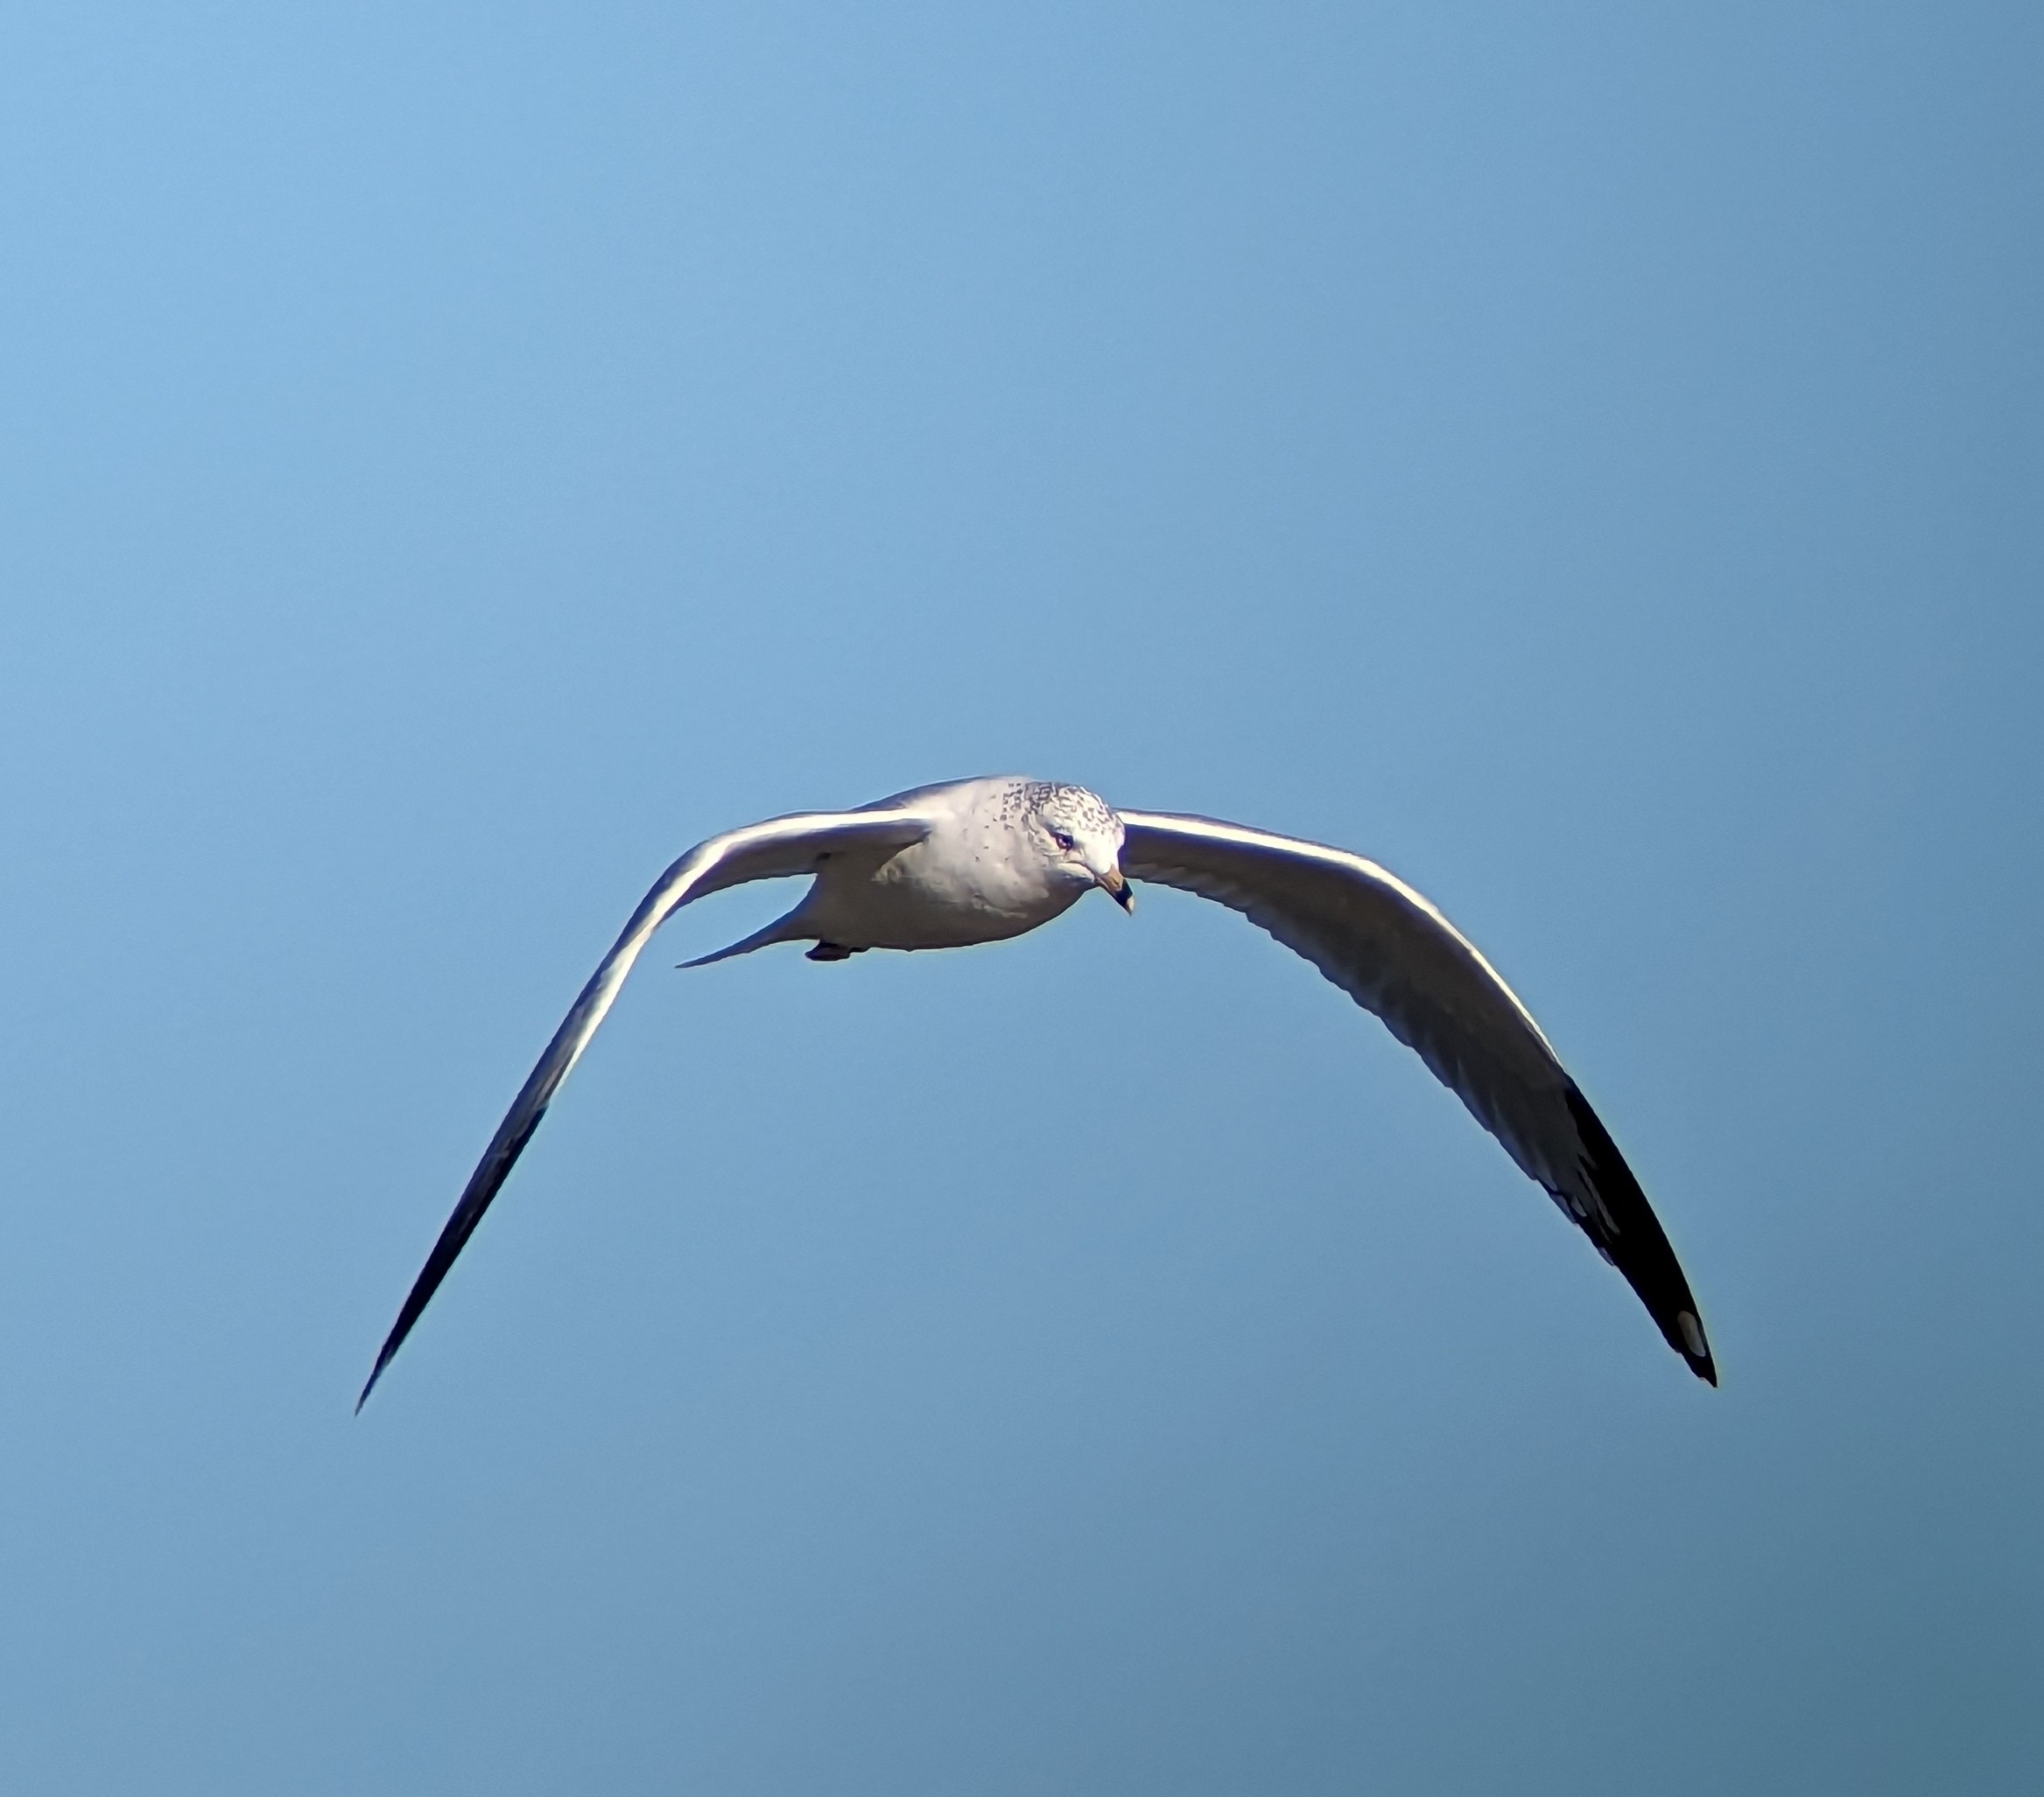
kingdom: Animalia
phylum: Chordata
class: Aves
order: Charadriiformes
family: Laridae
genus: Larus
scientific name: Larus delawarensis
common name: Ring-billed gull
